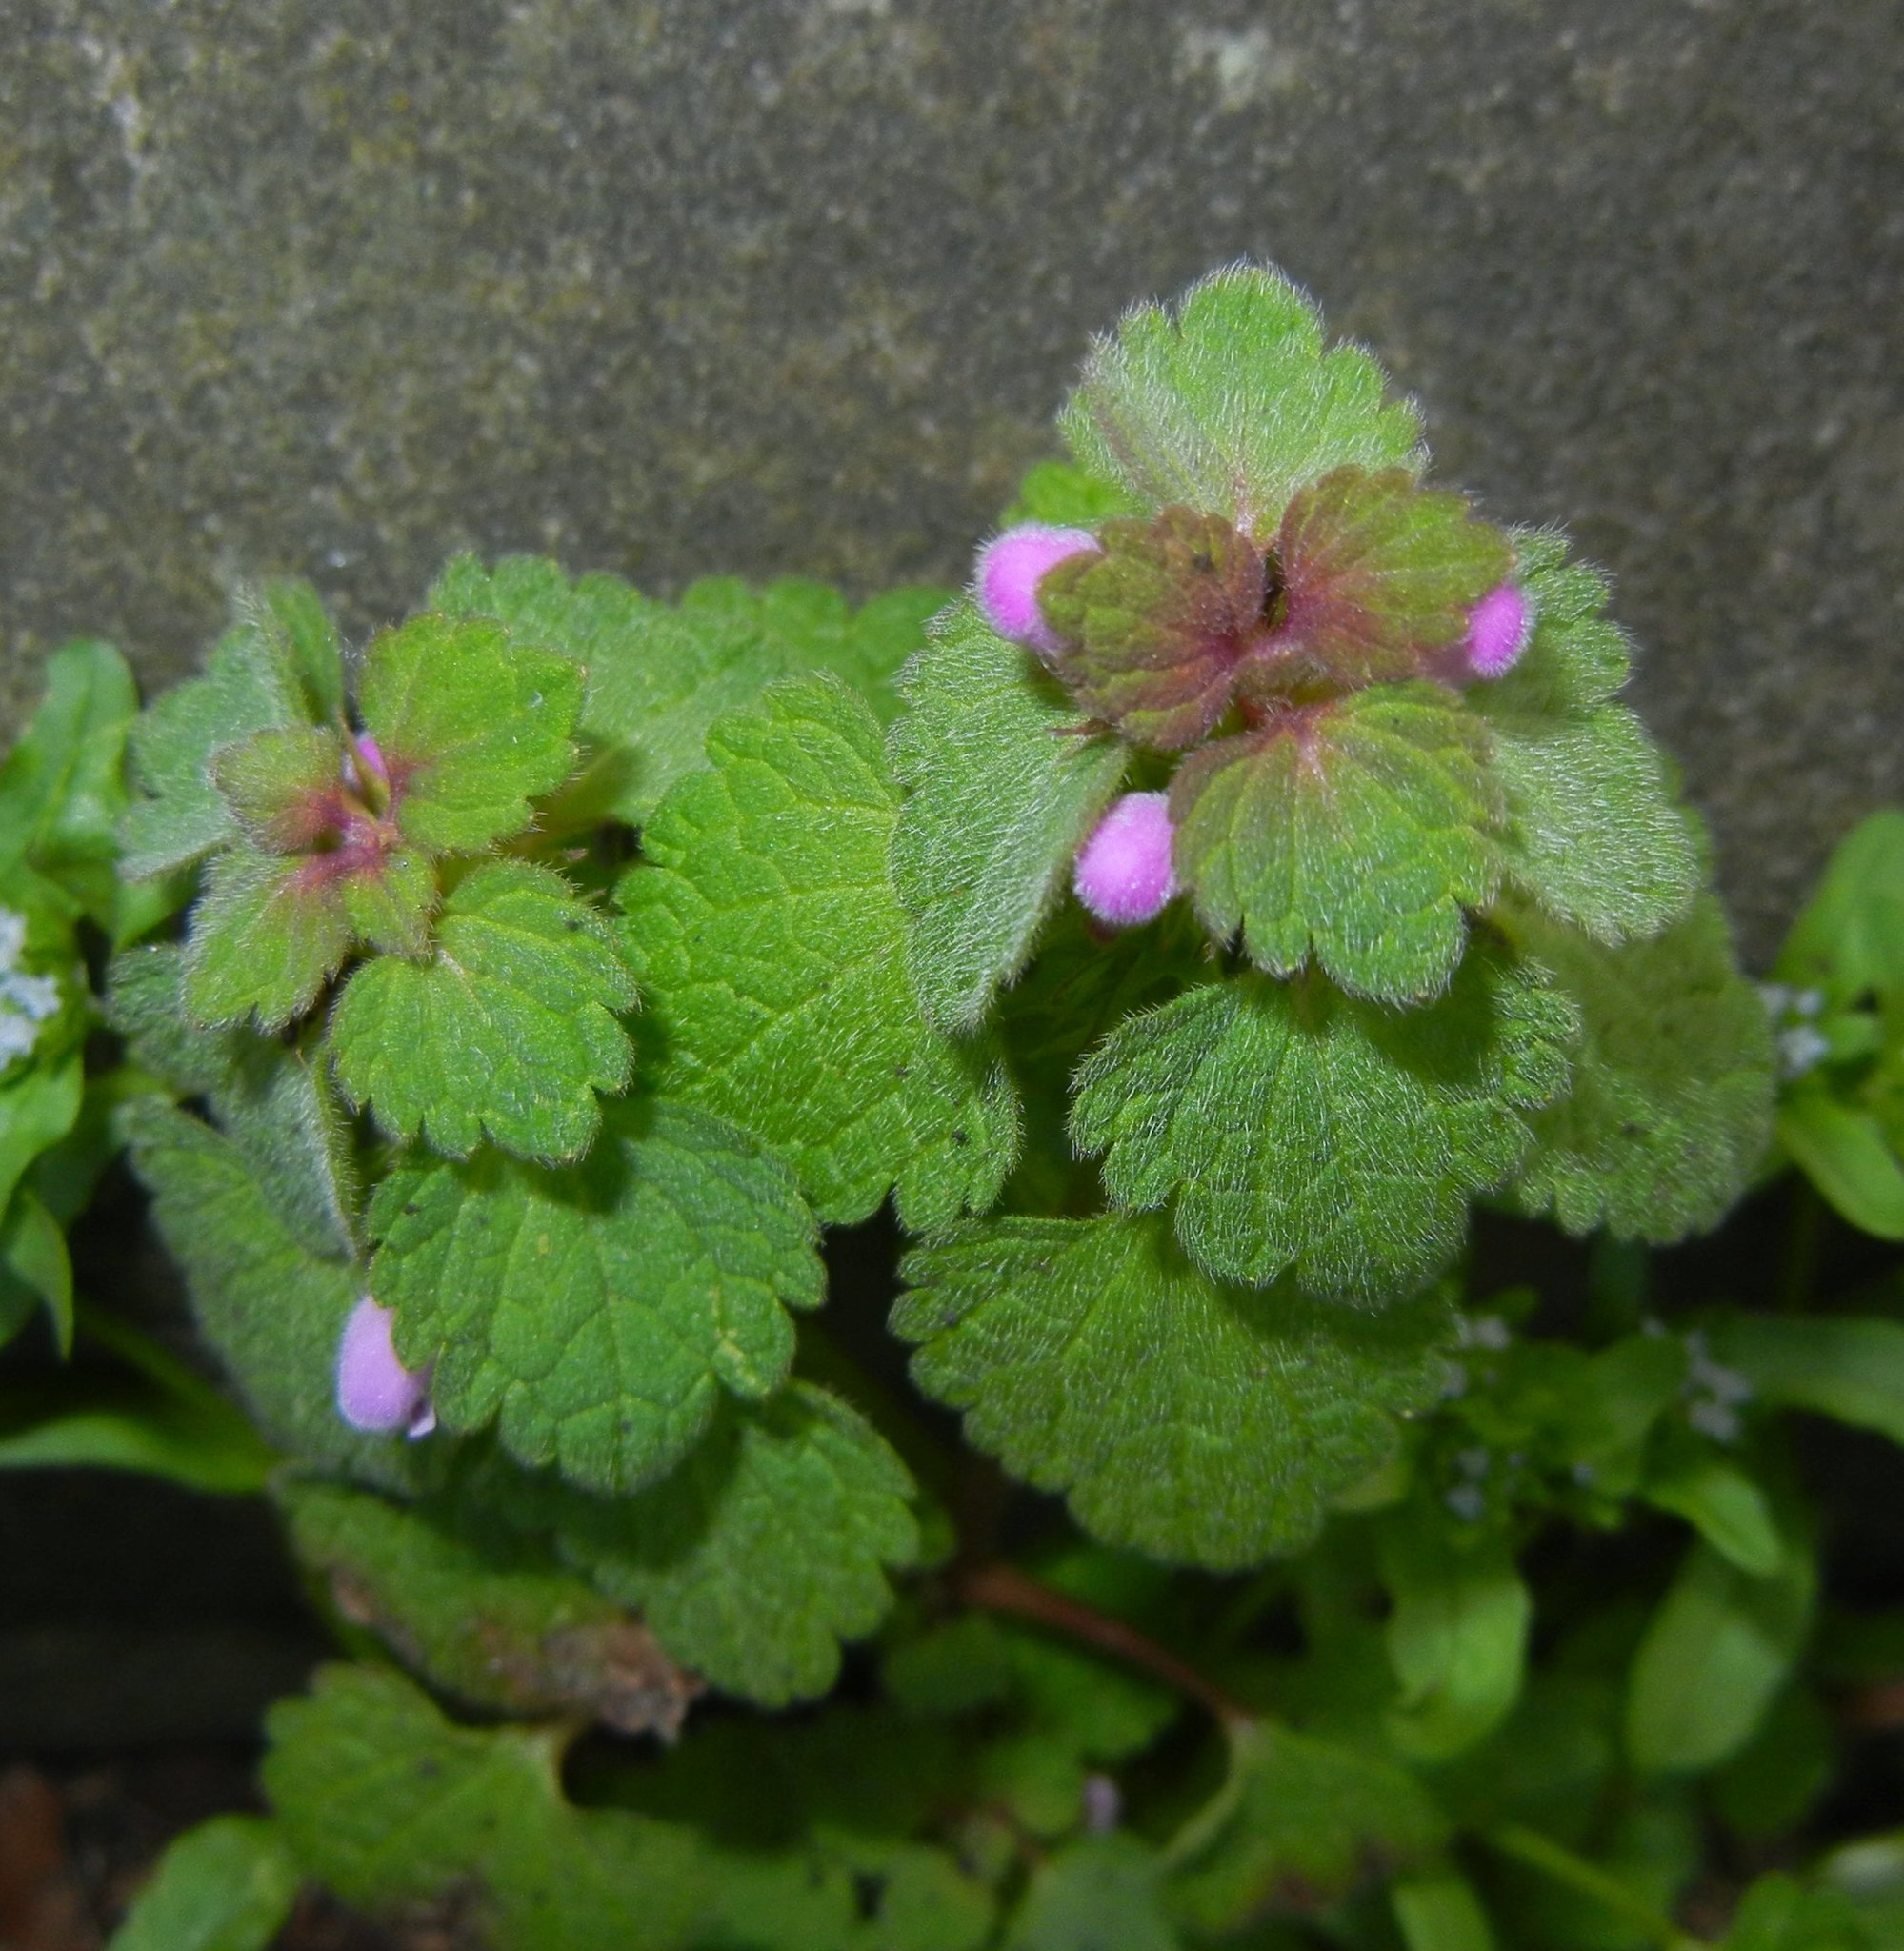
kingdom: Plantae
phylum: Tracheophyta
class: Magnoliopsida
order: Lamiales
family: Lamiaceae
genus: Lamium
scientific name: Lamium purpureum
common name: Red dead-nettle
